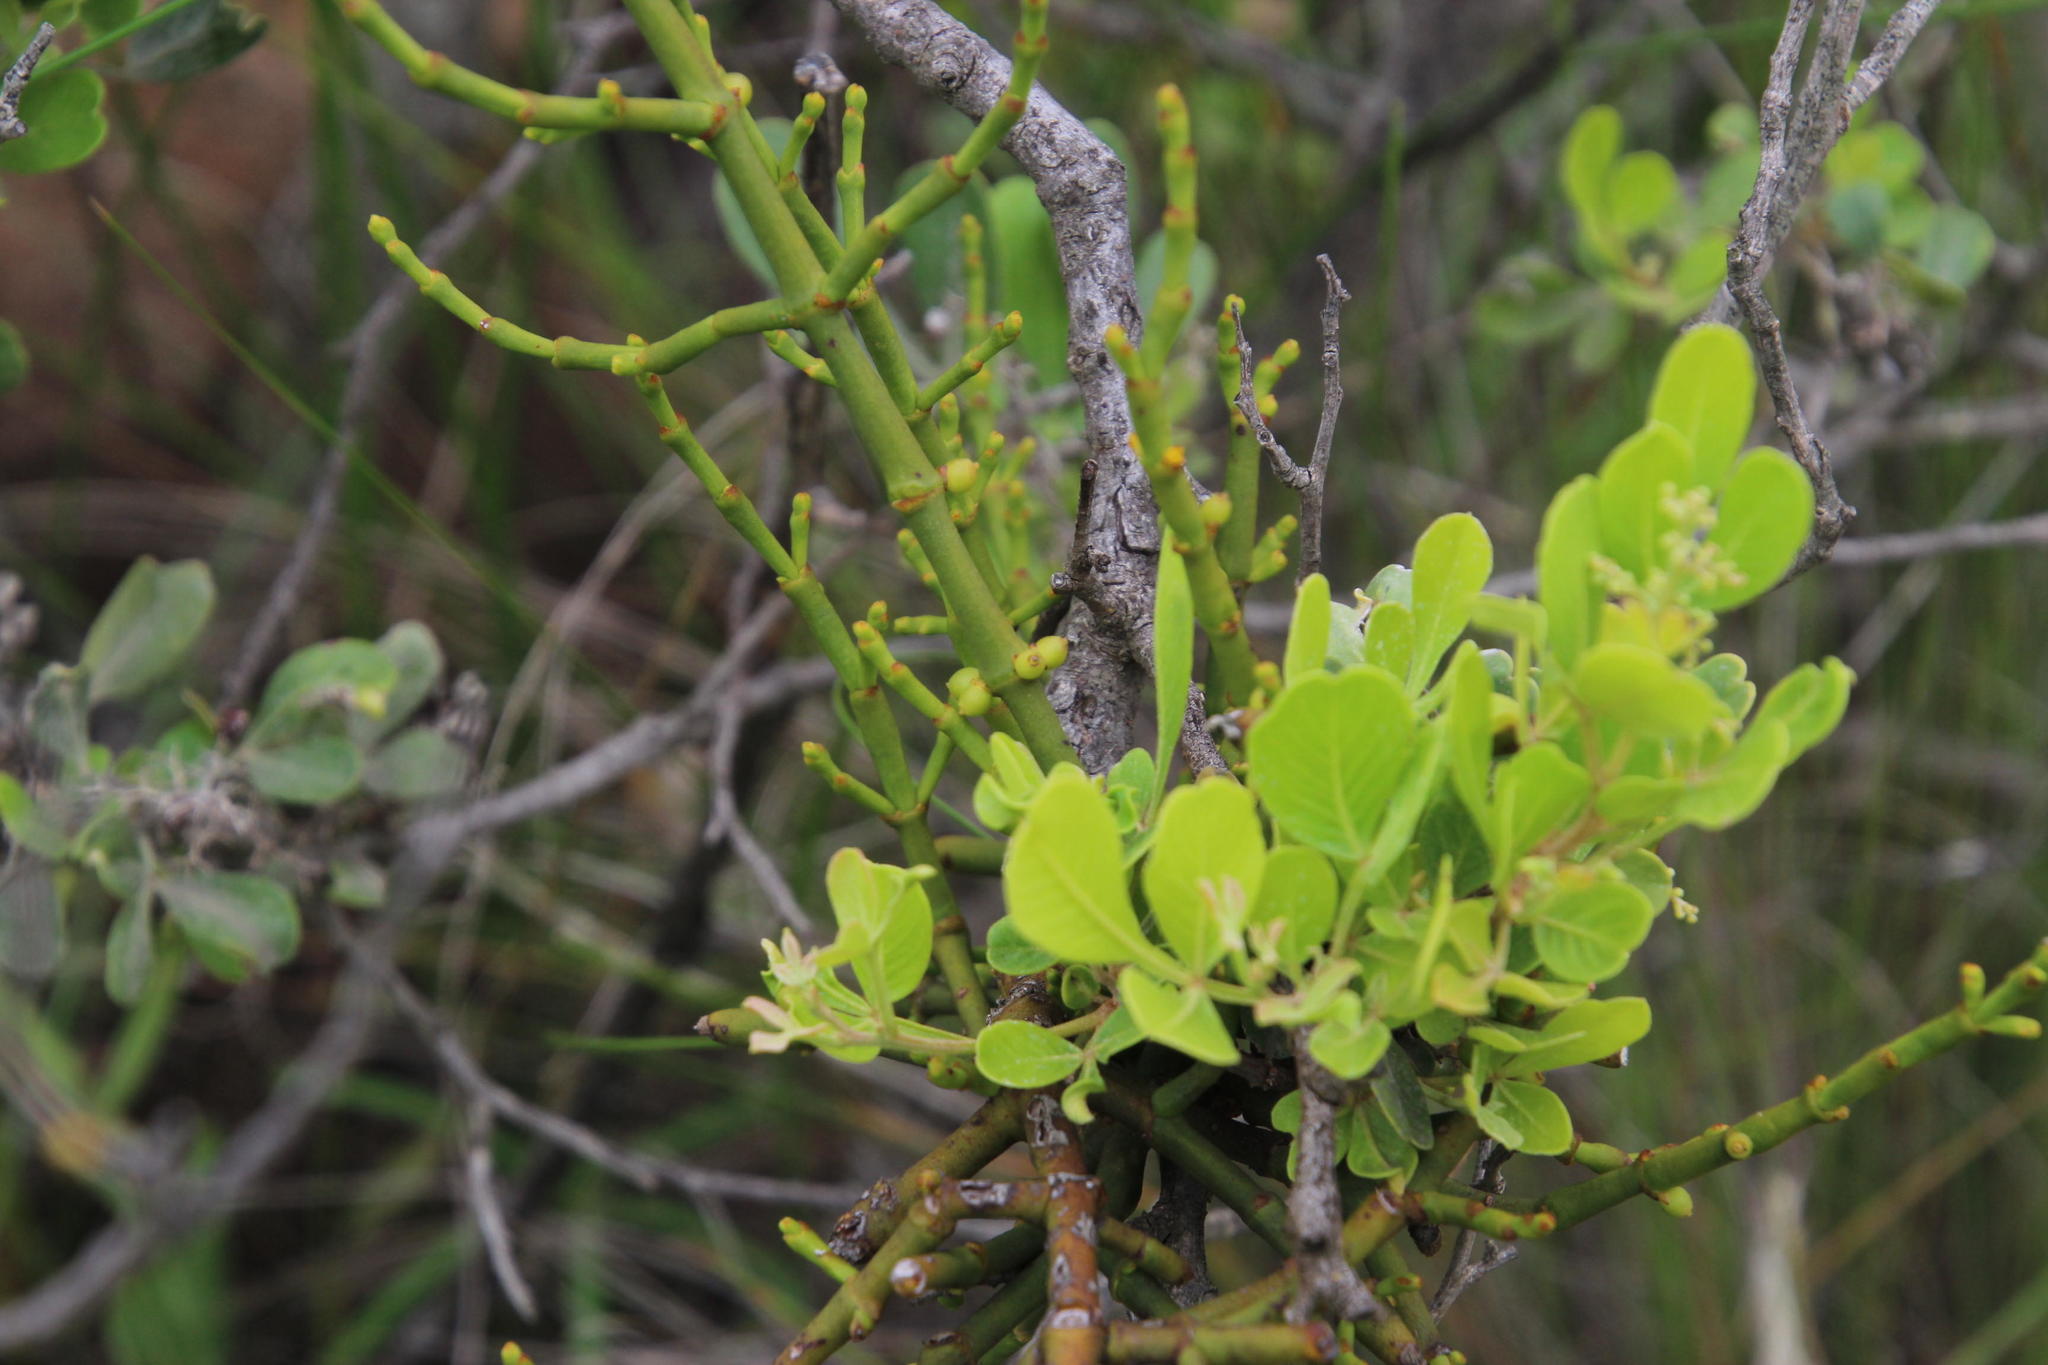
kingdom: Plantae
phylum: Tracheophyta
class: Magnoliopsida
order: Sapindales
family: Anacardiaceae
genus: Searsia
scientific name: Searsia pallens
